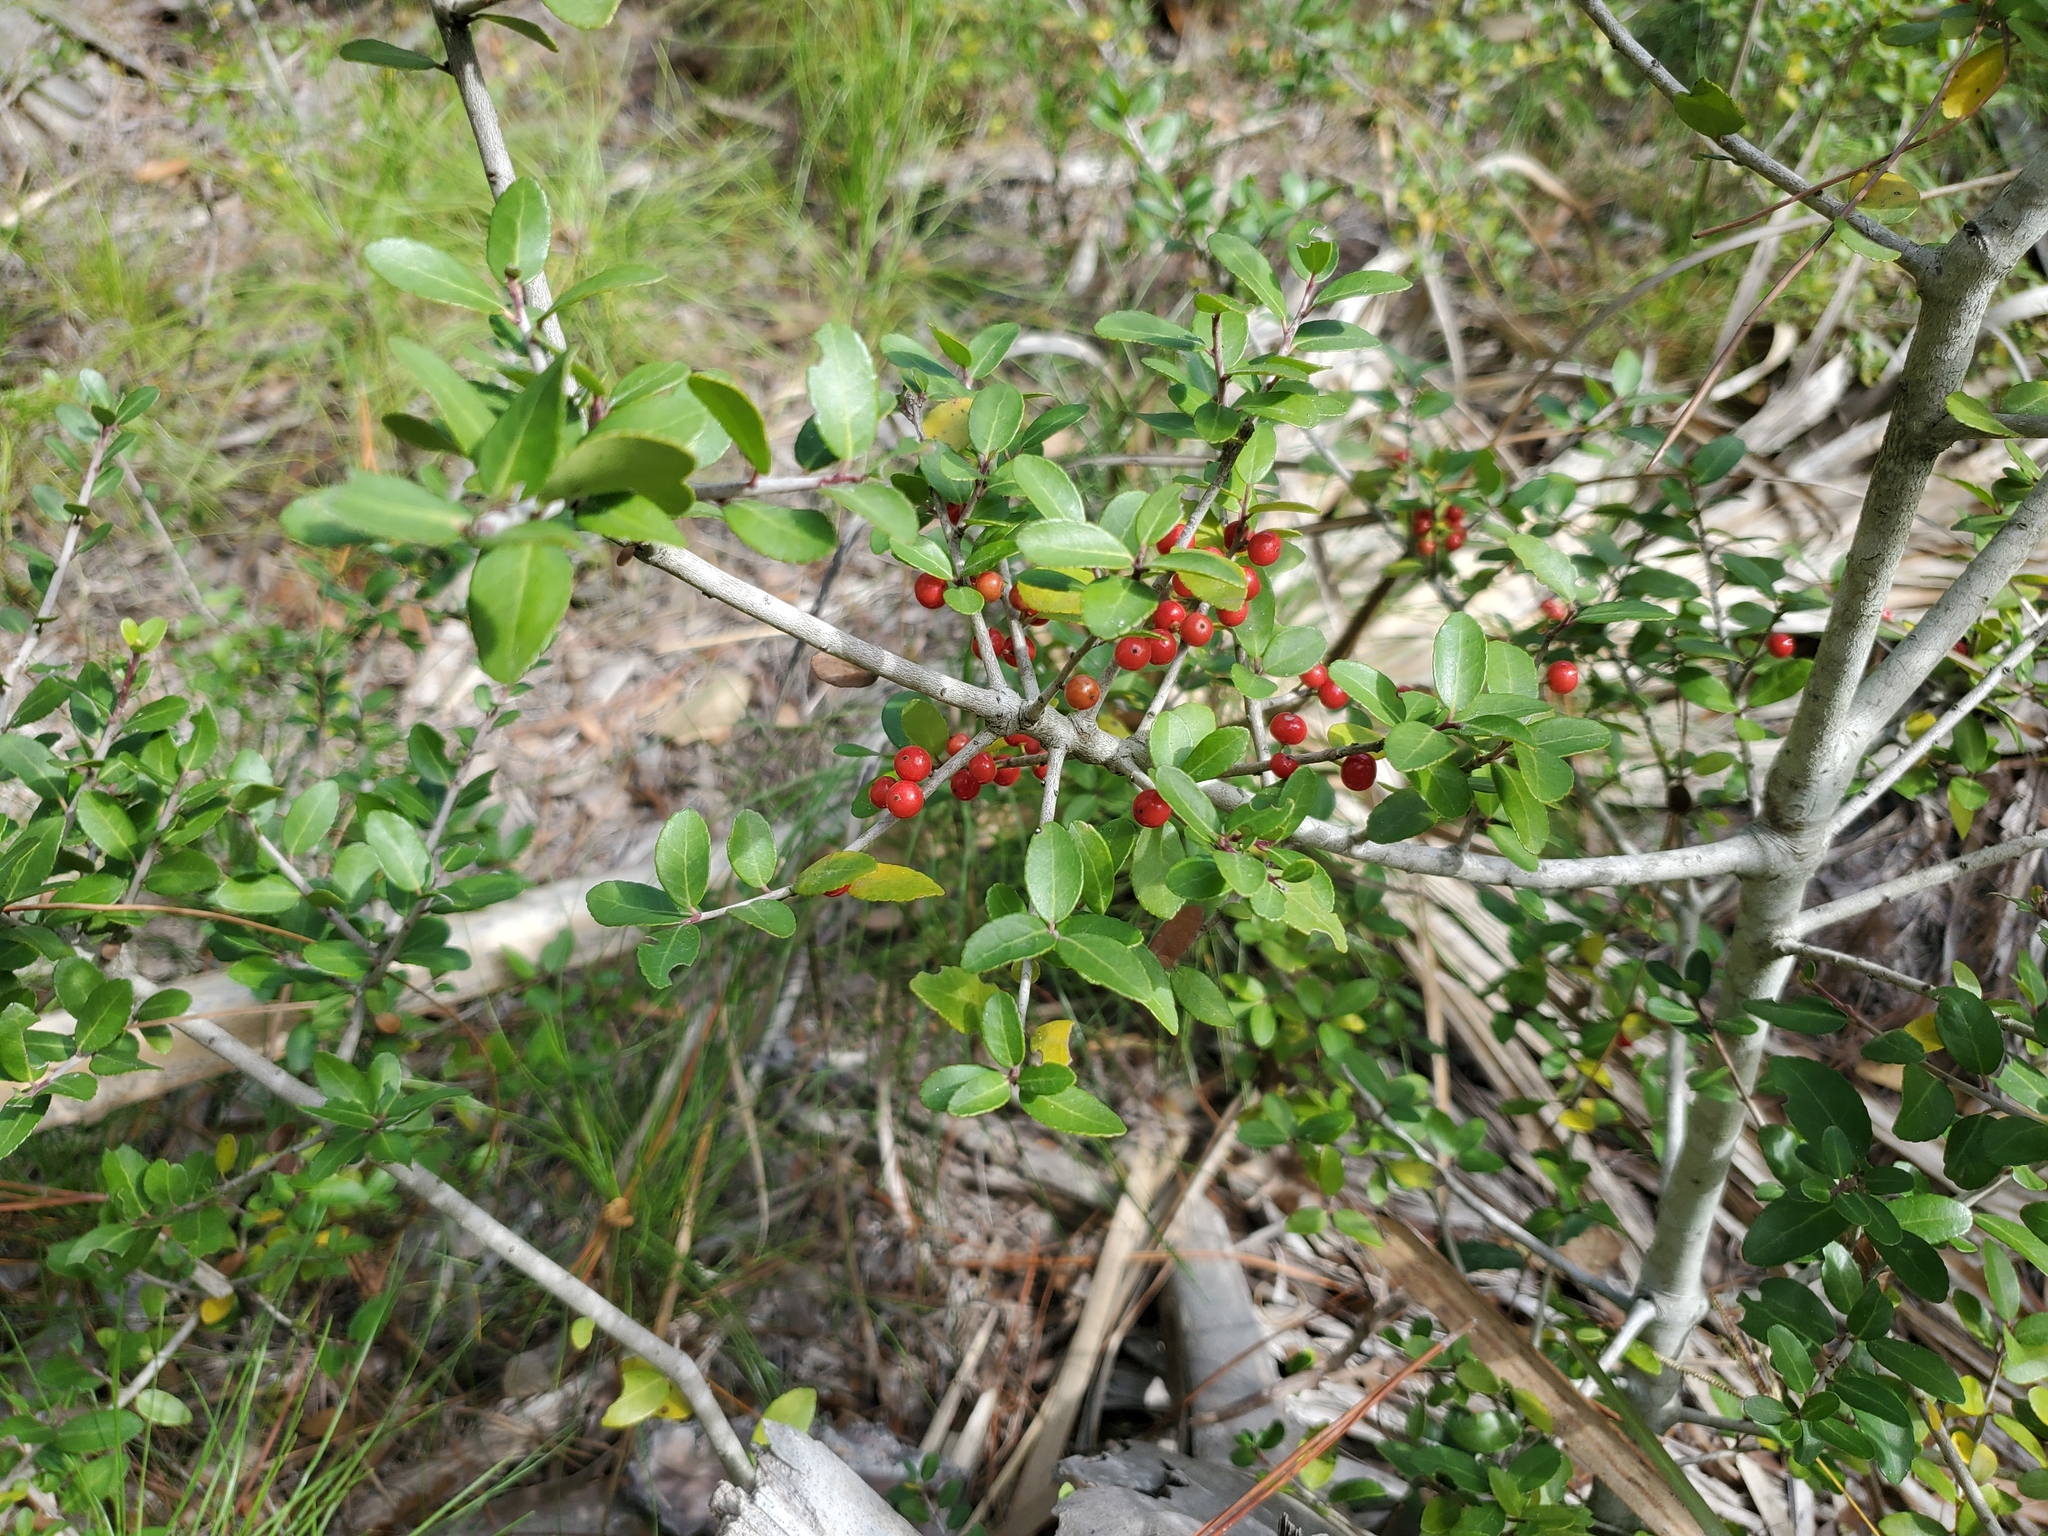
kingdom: Plantae
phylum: Tracheophyta
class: Magnoliopsida
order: Aquifoliales
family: Aquifoliaceae
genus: Ilex
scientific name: Ilex vomitoria
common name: Yaupon holly
